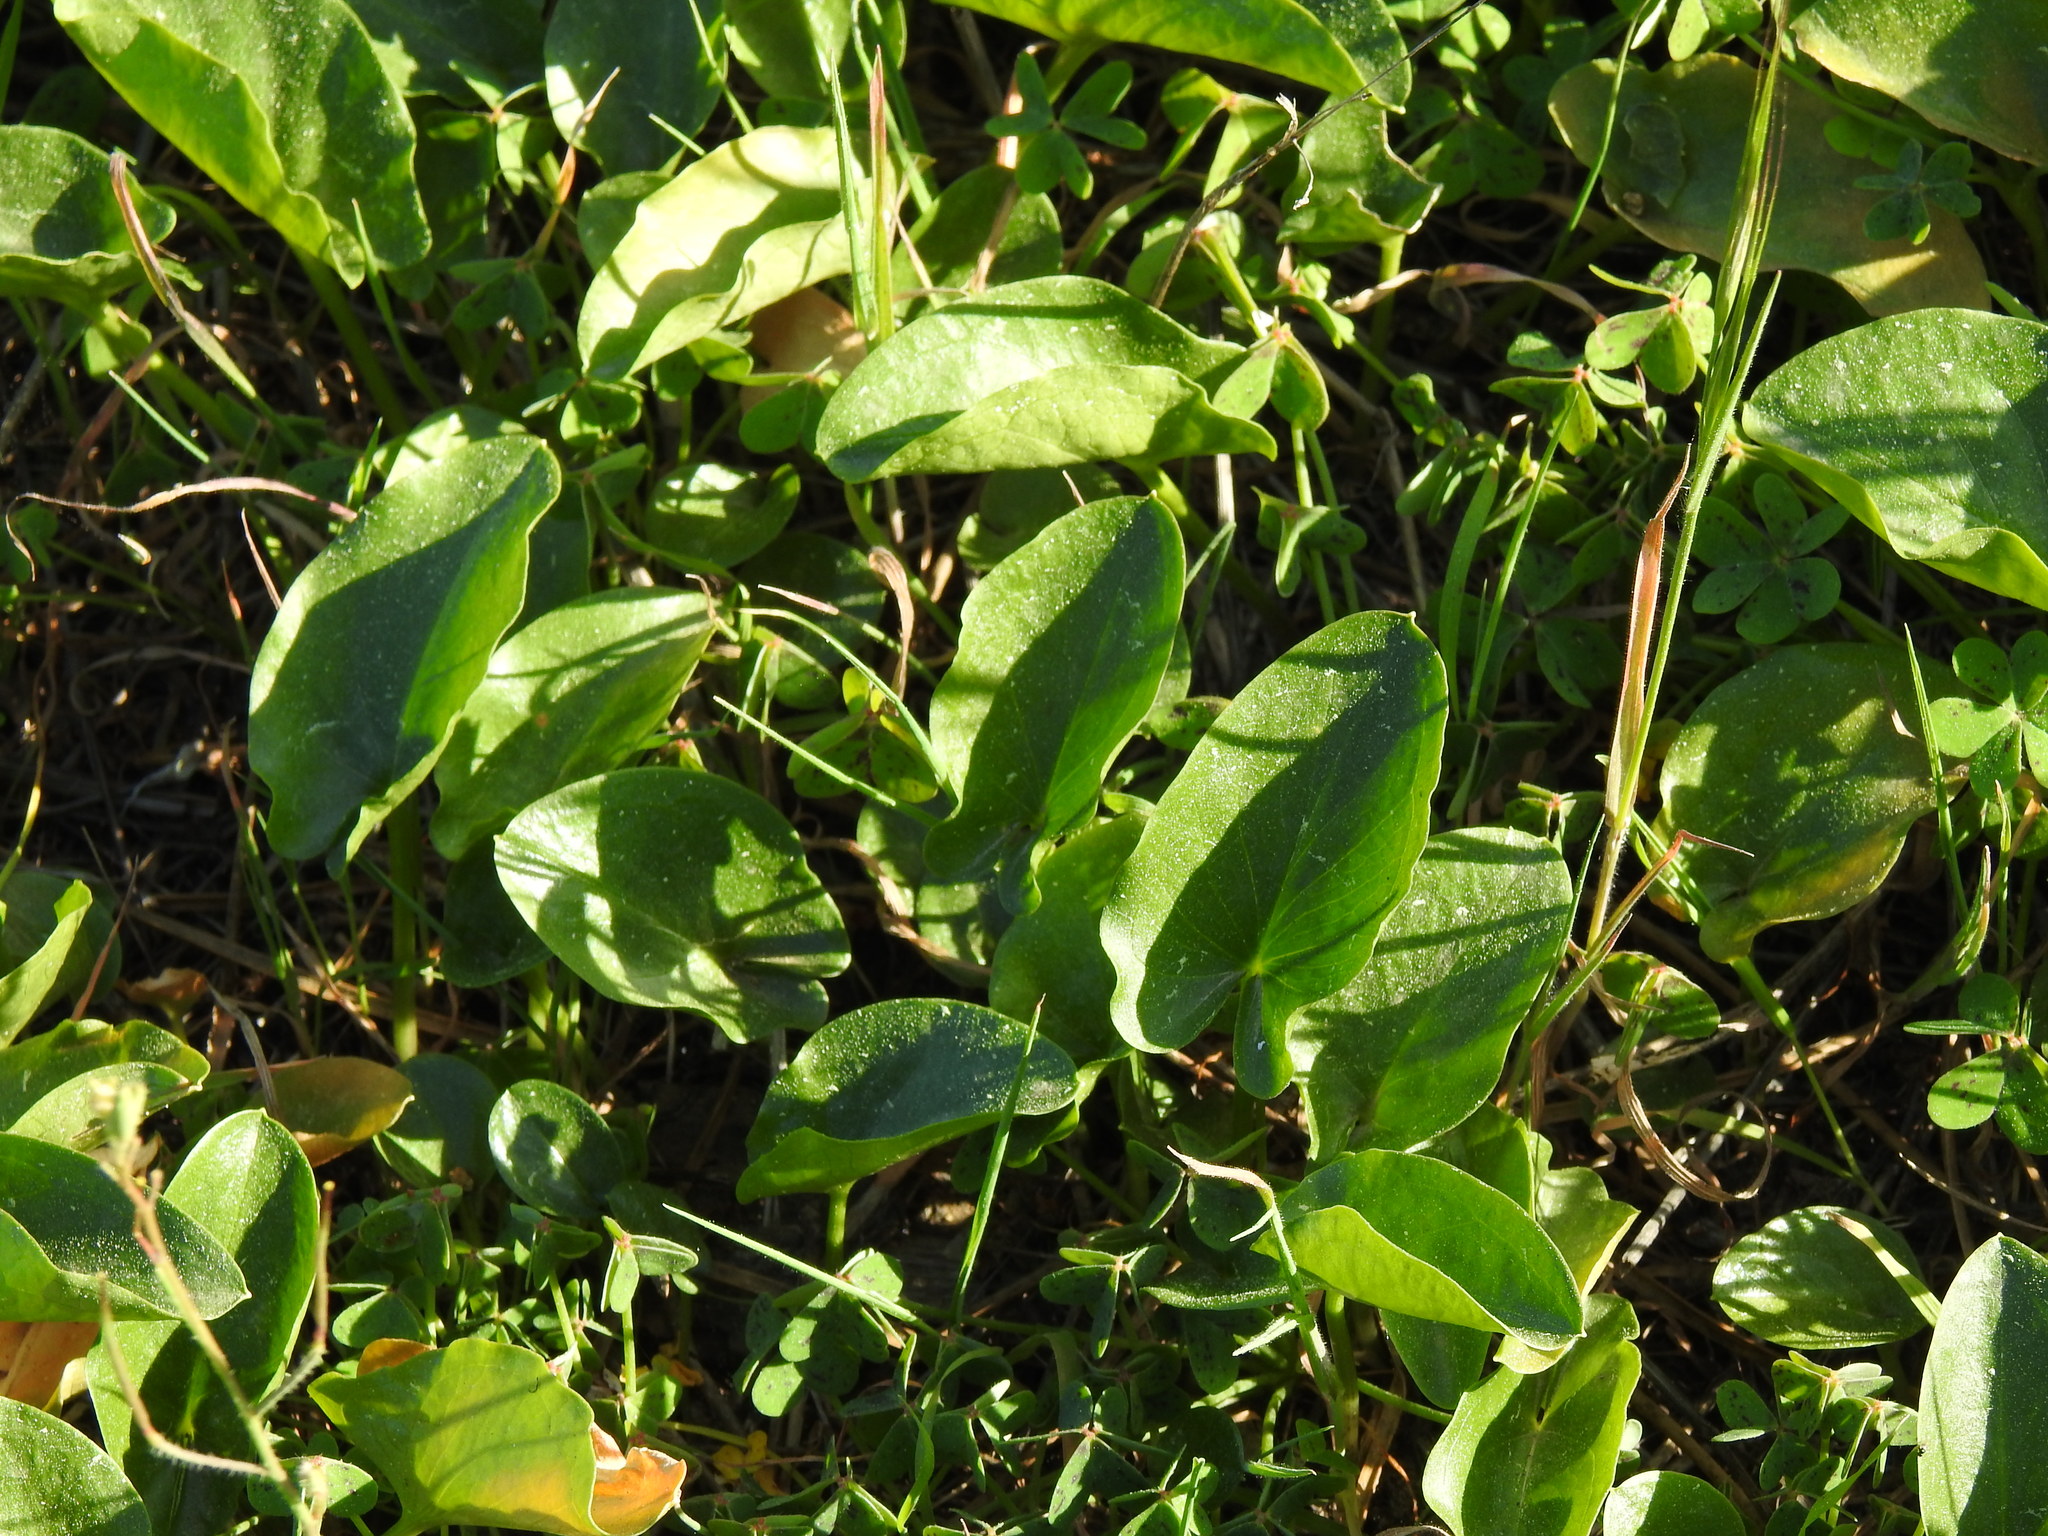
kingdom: Plantae
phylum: Tracheophyta
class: Liliopsida
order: Alismatales
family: Araceae
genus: Arisarum
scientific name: Arisarum simorrhinum
